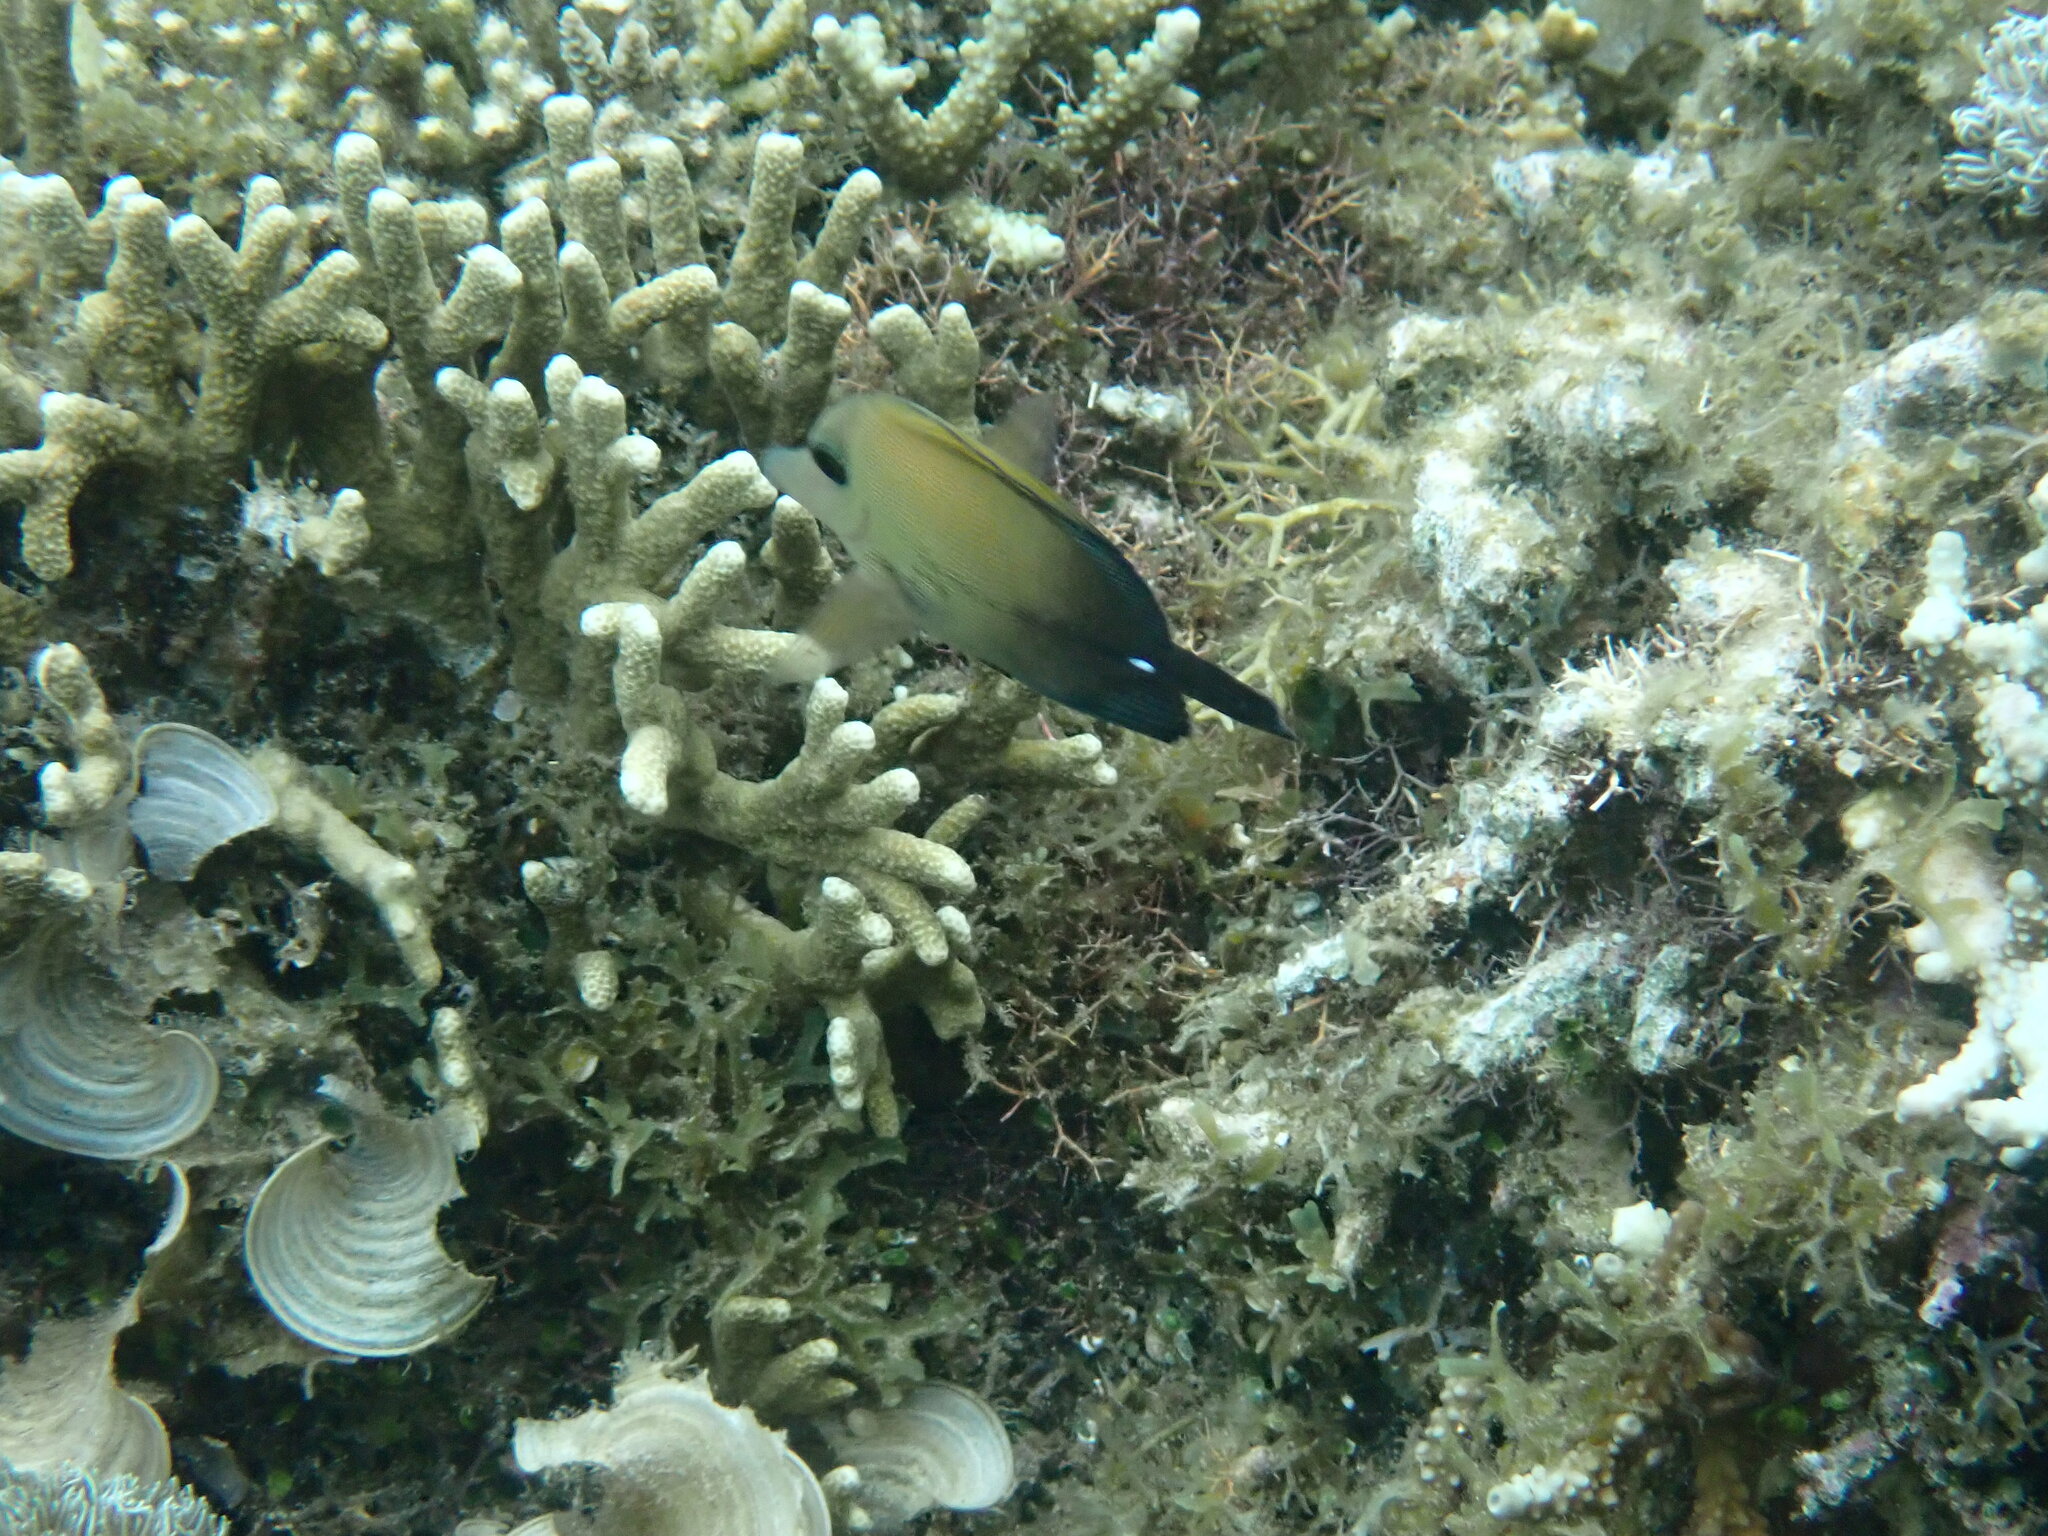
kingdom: Animalia
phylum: Chordata
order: Perciformes
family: Acanthuridae
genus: Zebrasoma
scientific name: Zebrasoma scopas
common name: Twotone tang
